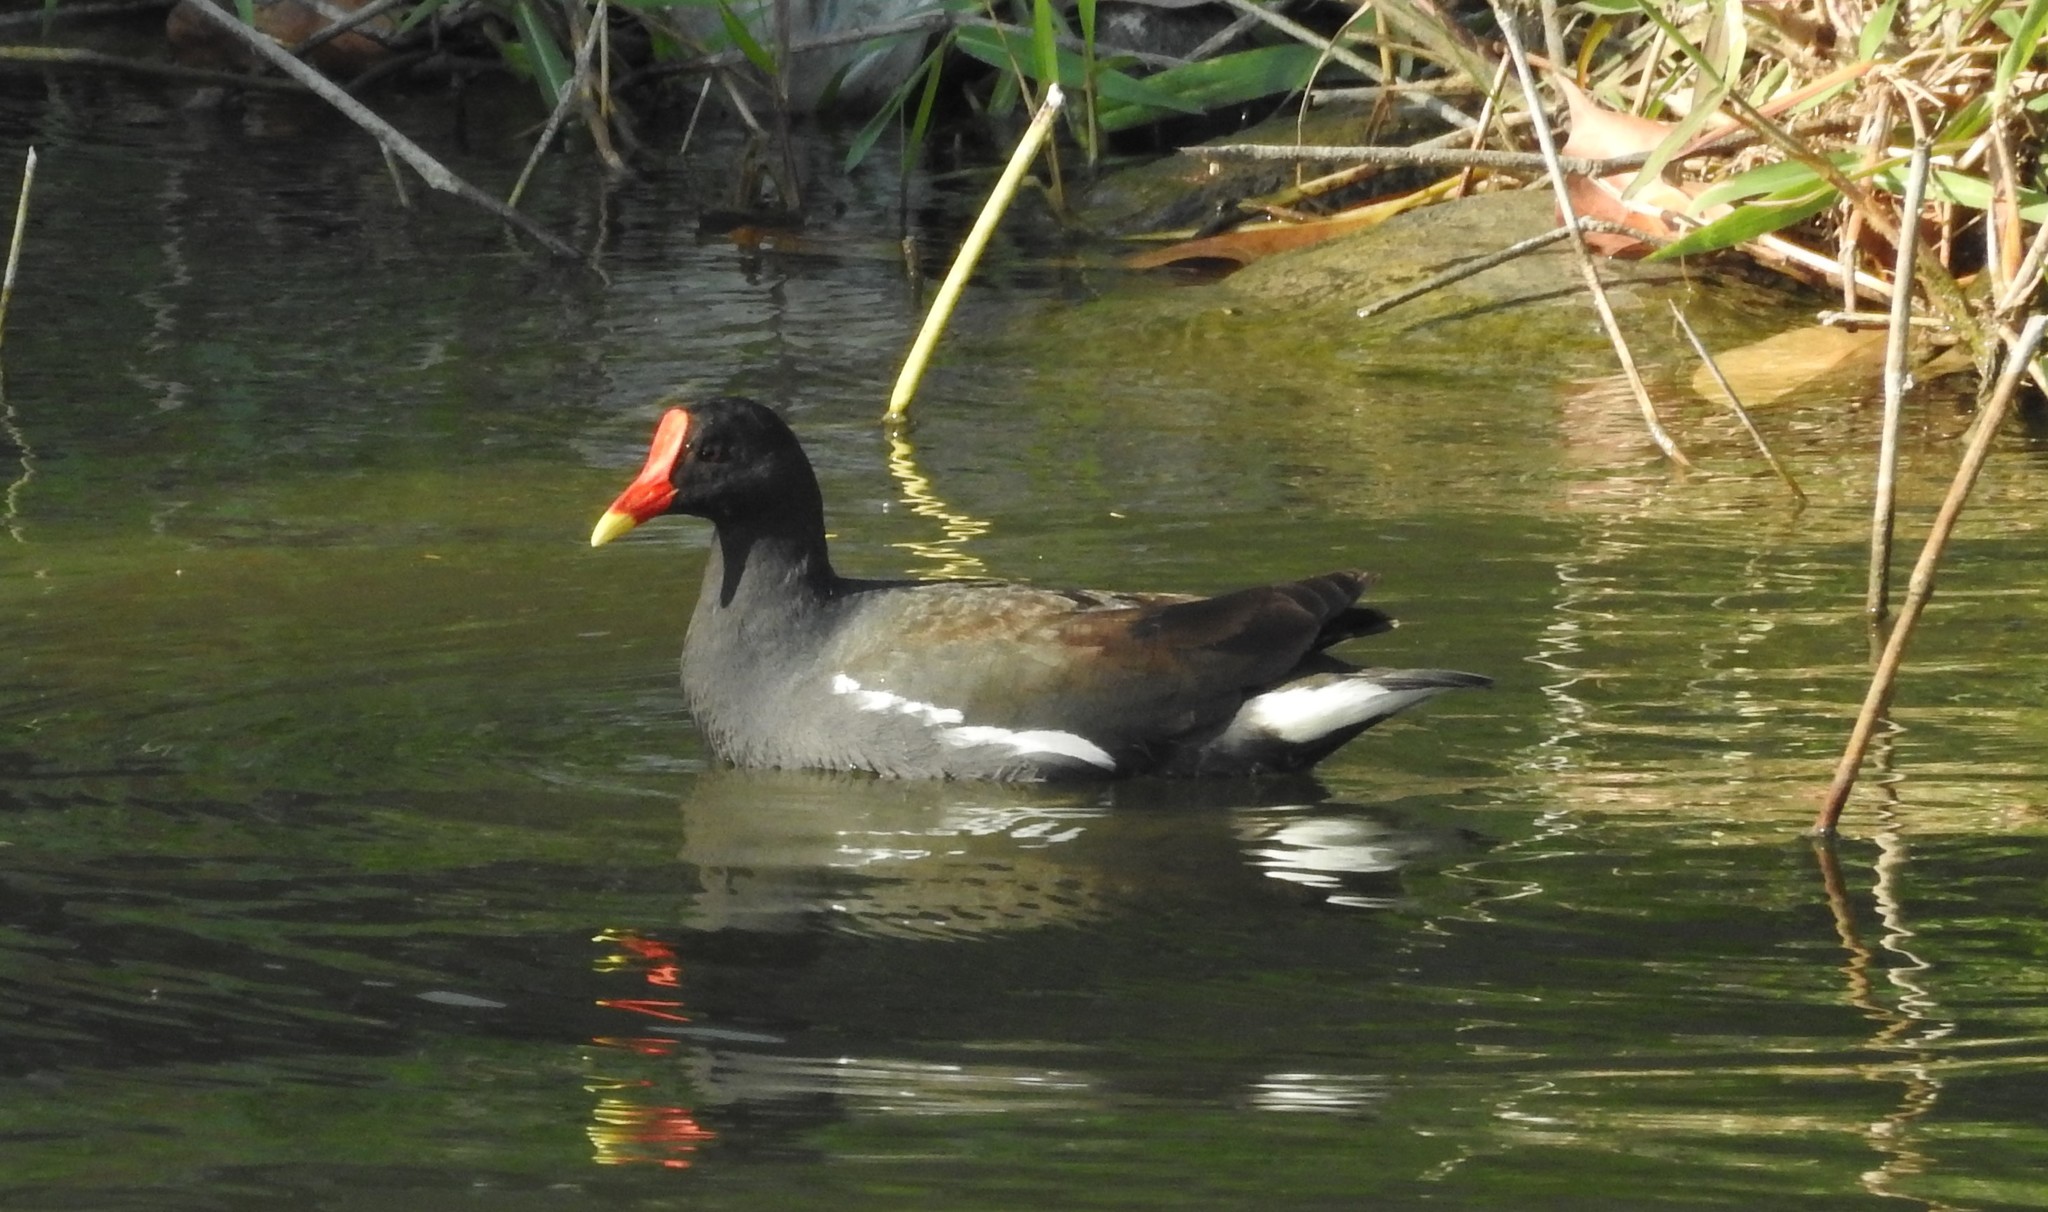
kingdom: Animalia
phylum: Chordata
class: Aves
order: Gruiformes
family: Rallidae
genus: Gallinula
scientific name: Gallinula chloropus
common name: Common moorhen
